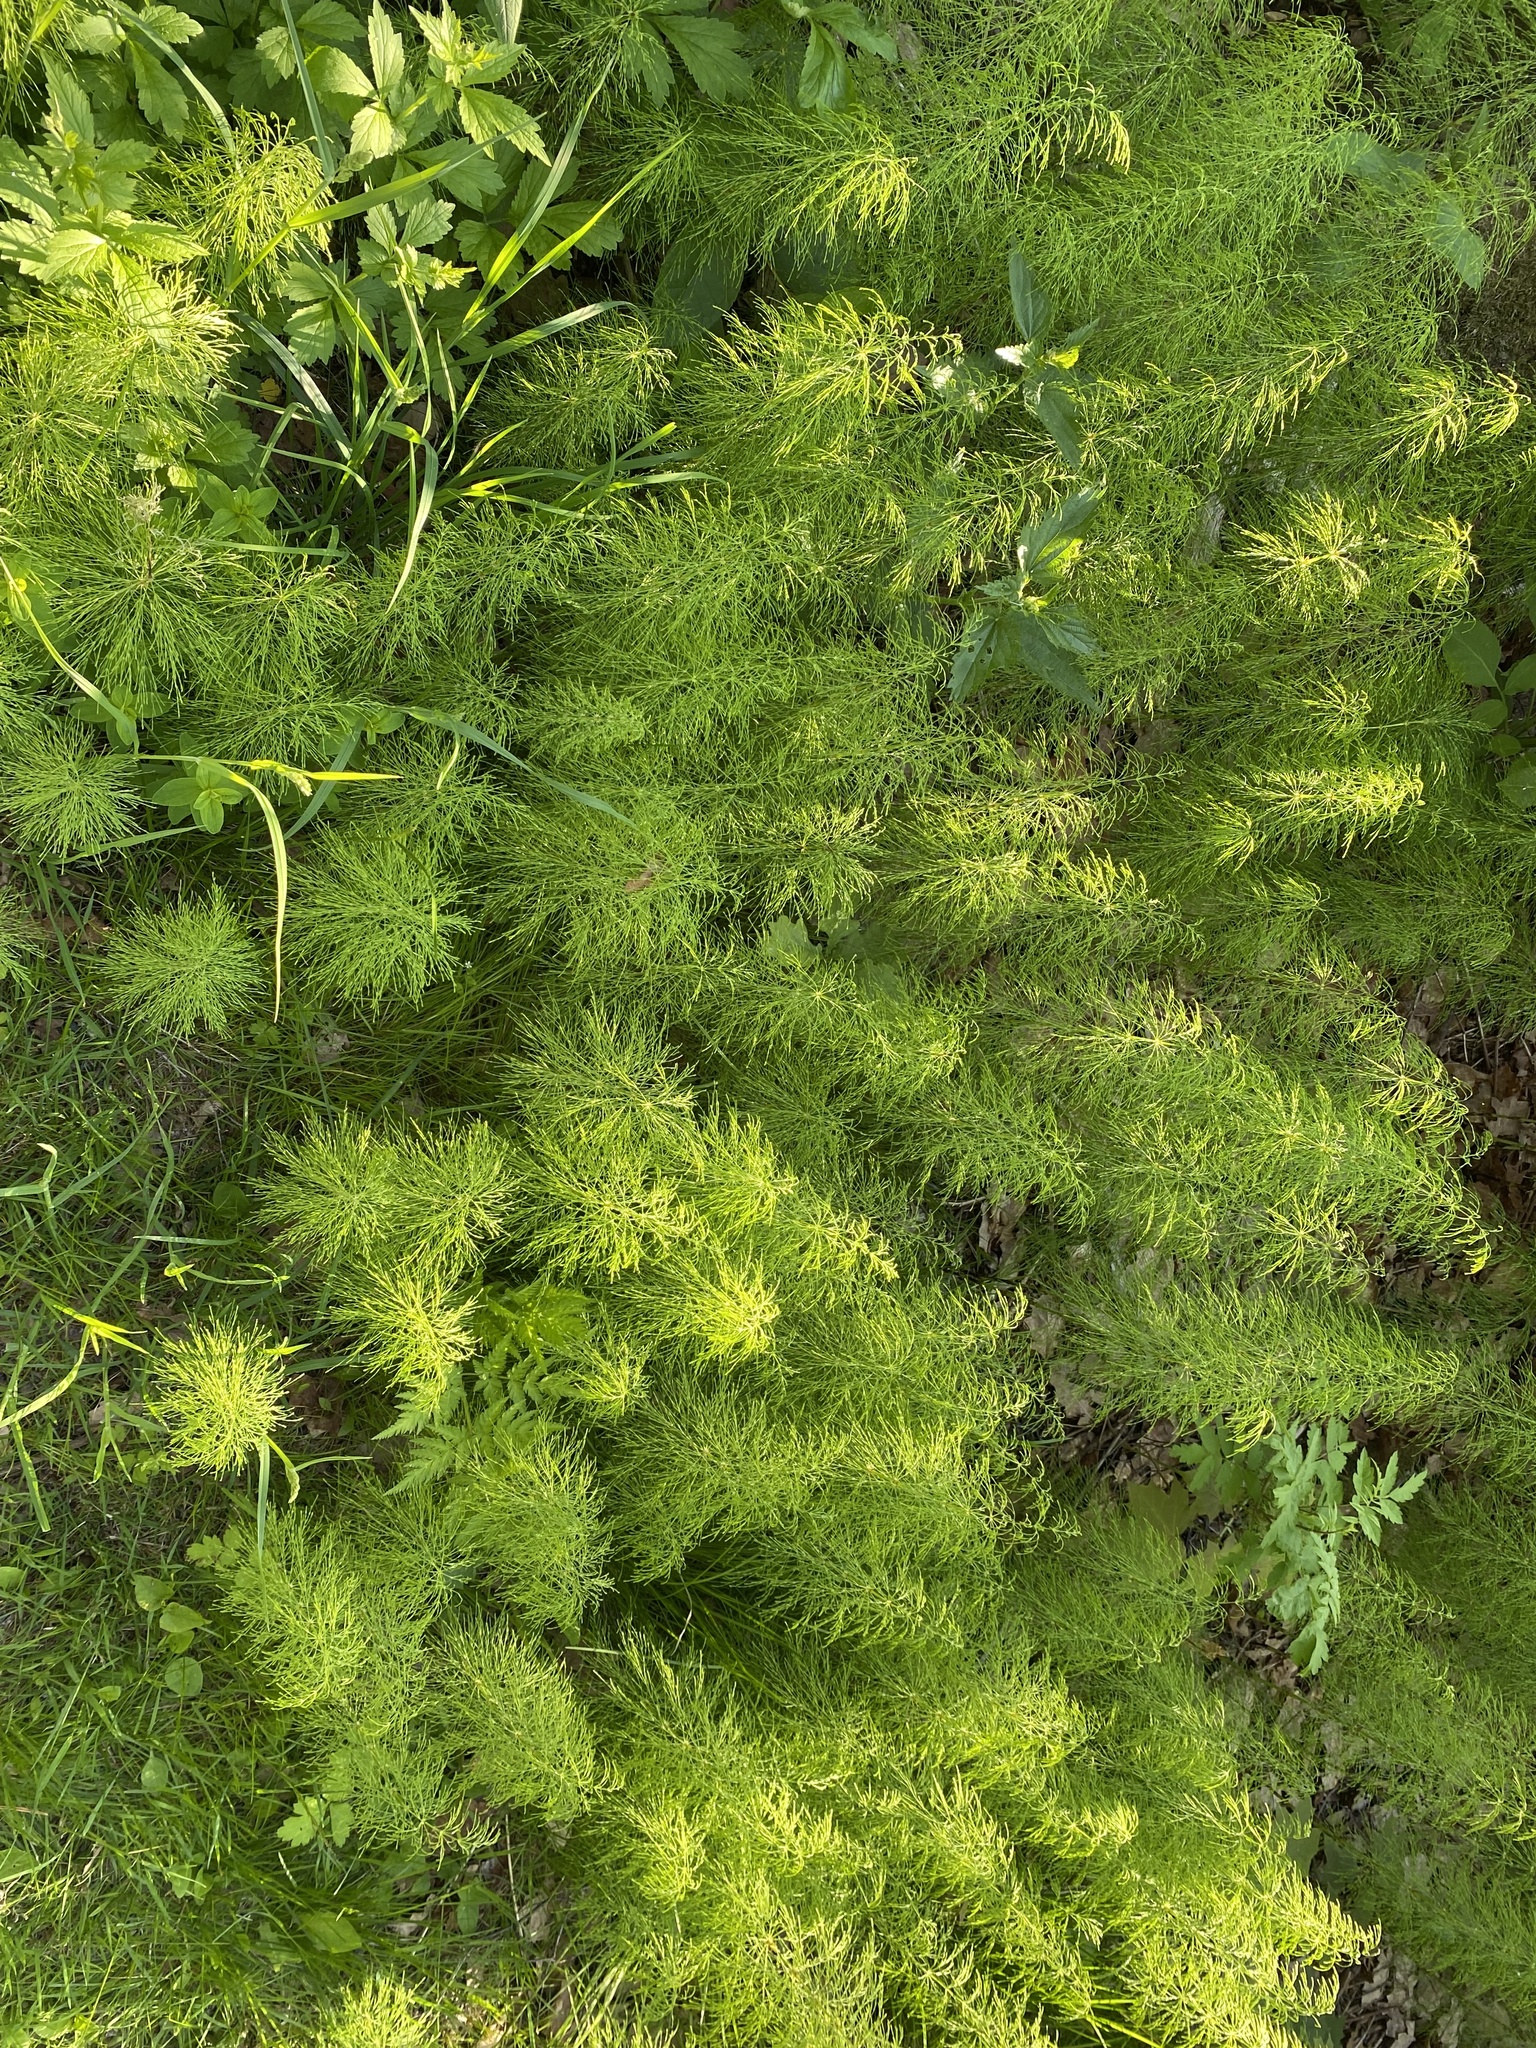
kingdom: Plantae
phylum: Tracheophyta
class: Polypodiopsida
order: Equisetales
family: Equisetaceae
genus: Equisetum
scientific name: Equisetum sylvaticum
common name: Wood horsetail
